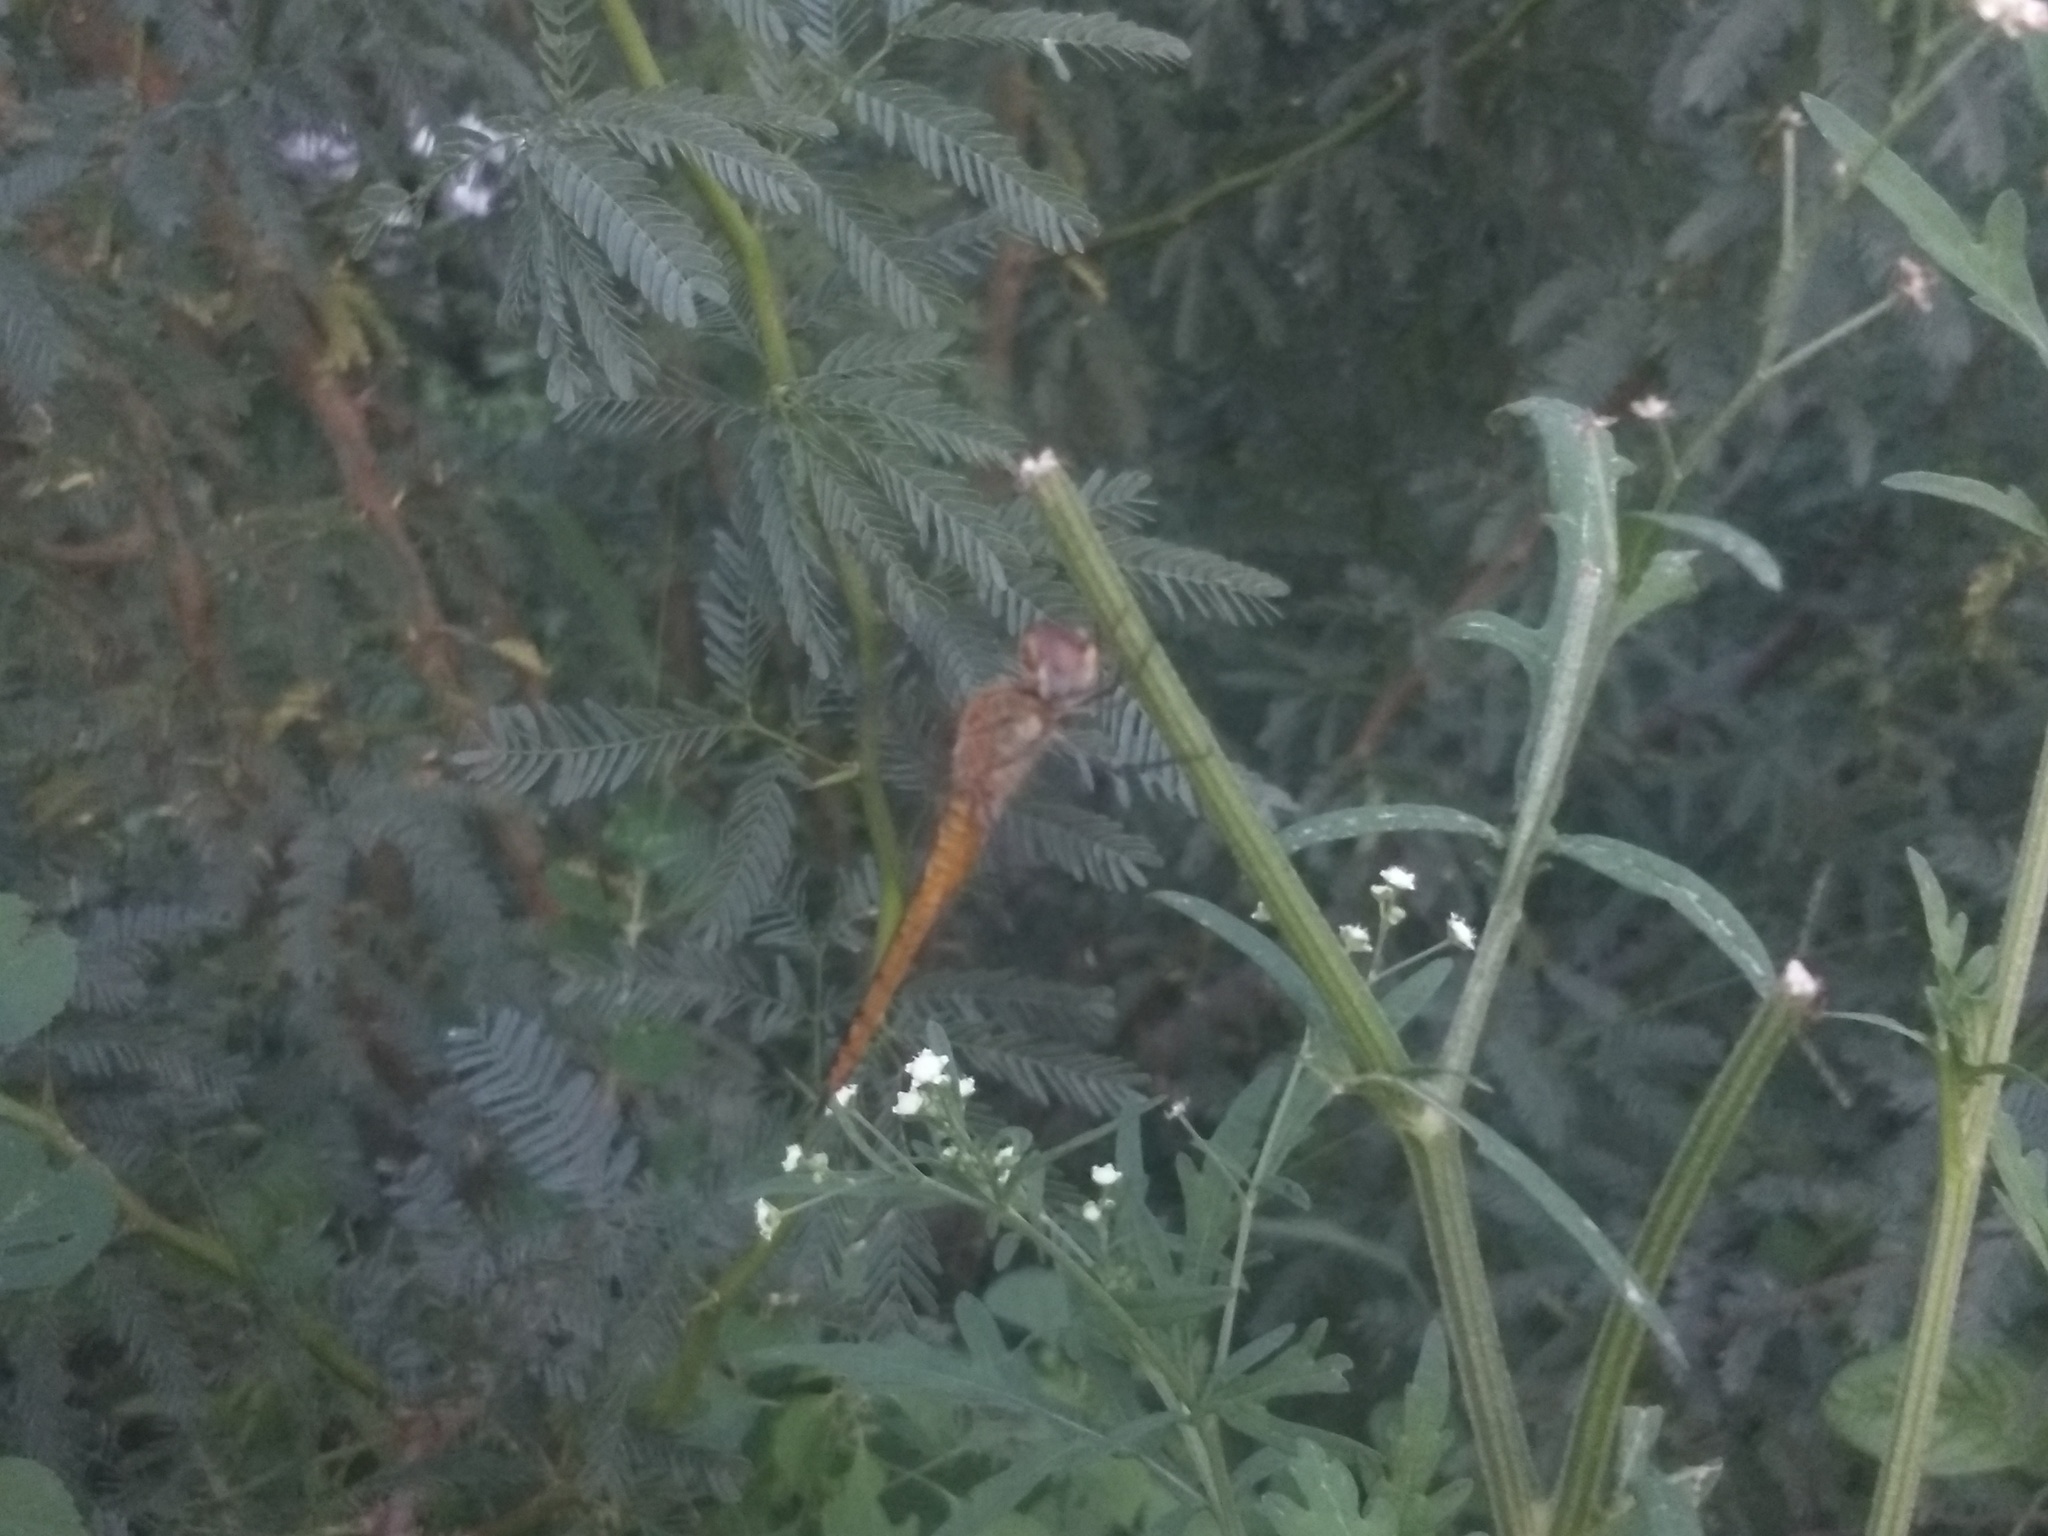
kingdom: Animalia
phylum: Arthropoda
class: Insecta
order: Odonata
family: Libellulidae
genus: Pantala
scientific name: Pantala flavescens
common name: Wandering glider
